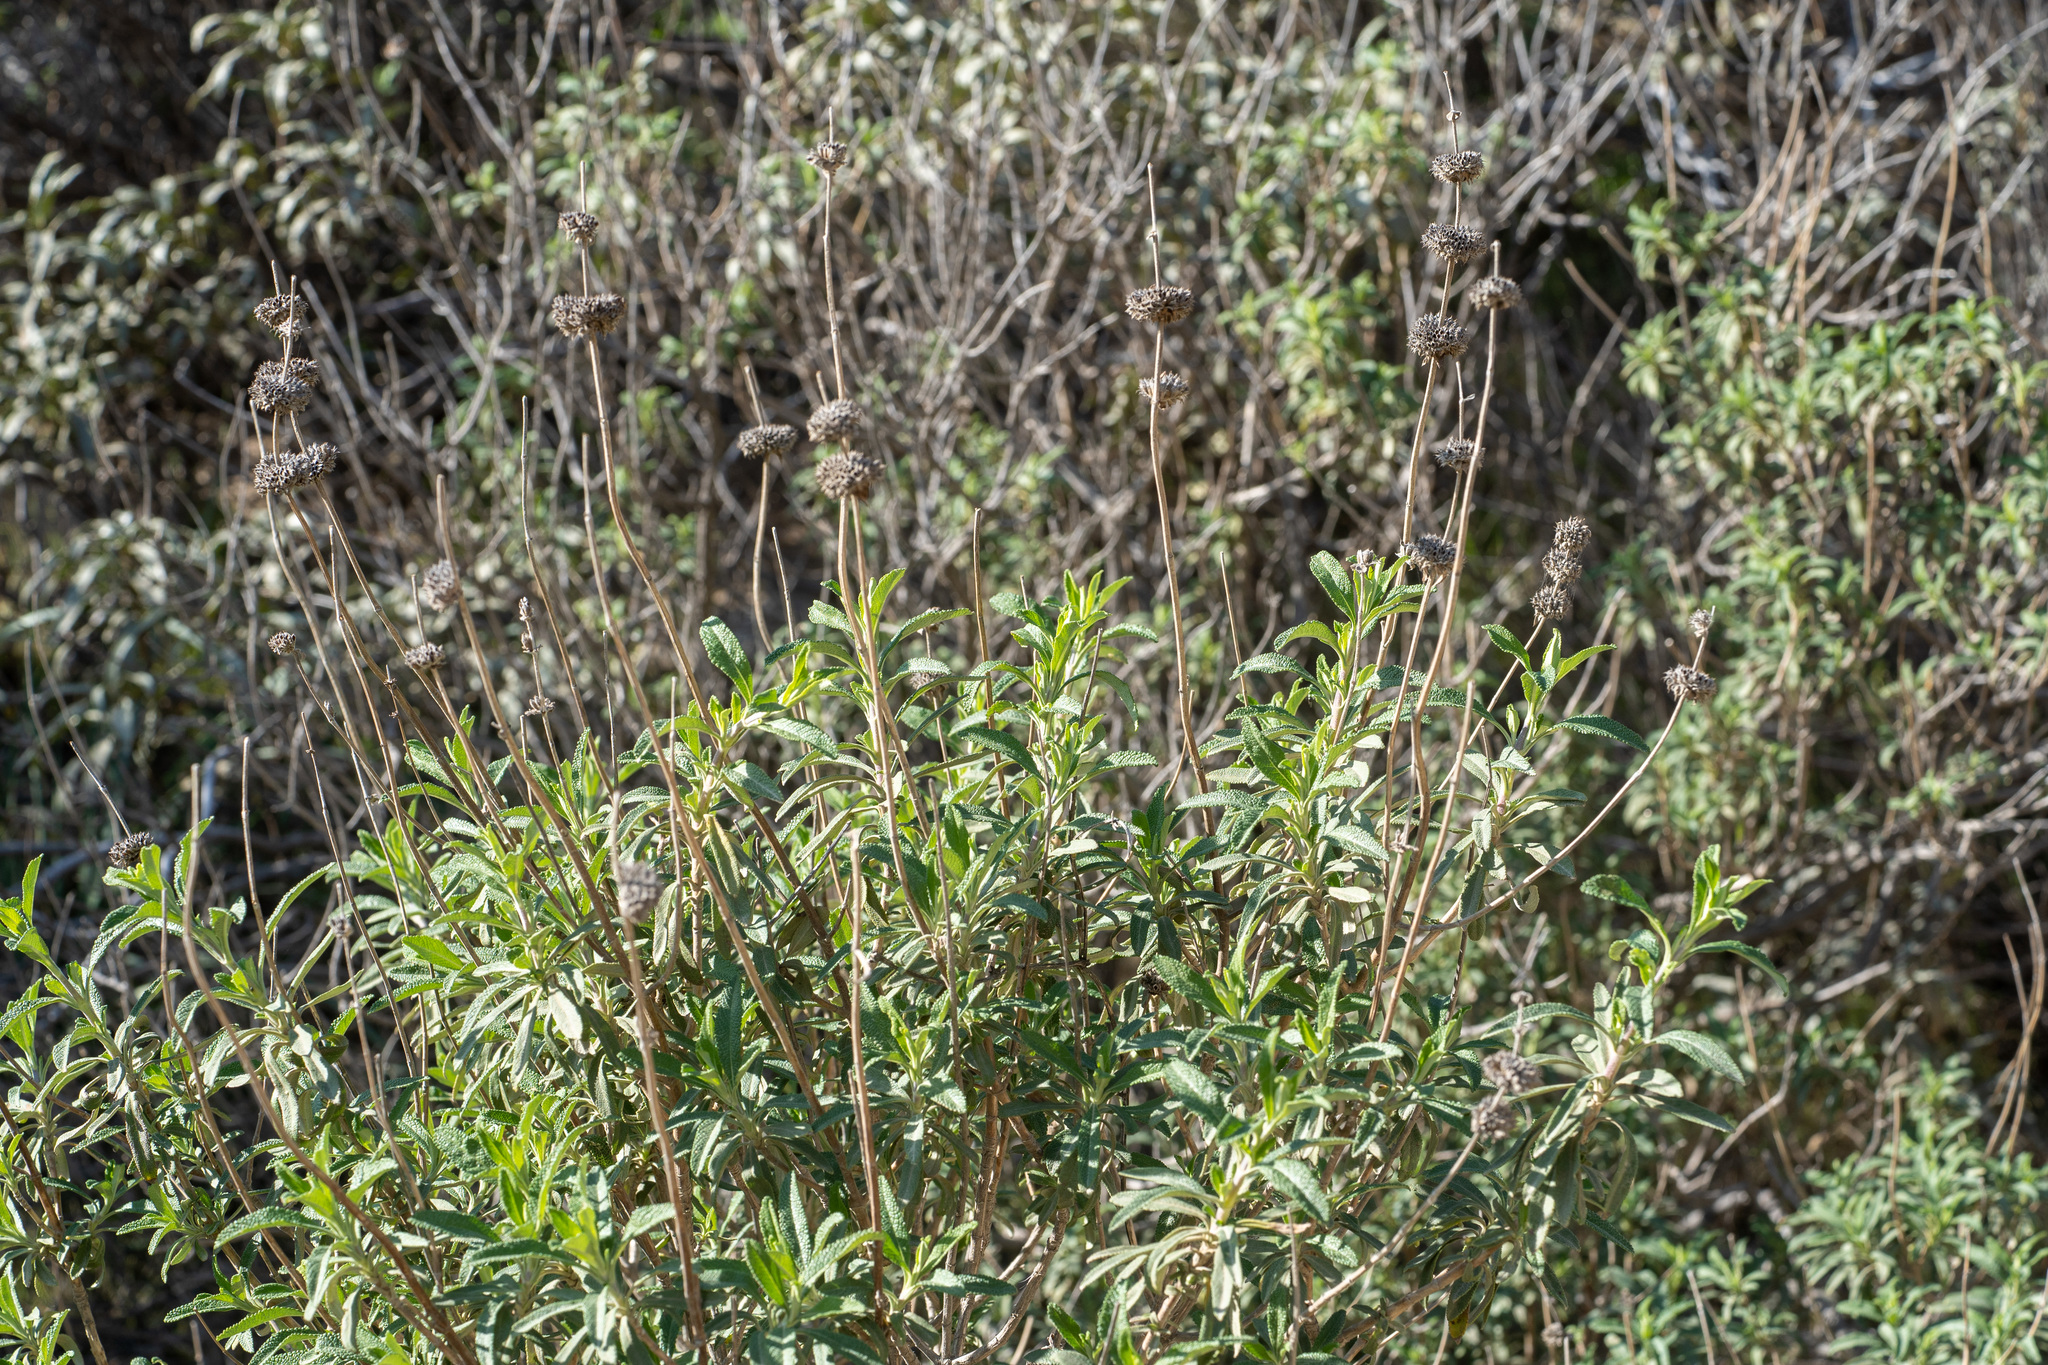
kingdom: Plantae
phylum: Tracheophyta
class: Magnoliopsida
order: Lamiales
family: Lamiaceae
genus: Salvia
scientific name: Salvia mellifera
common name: Black sage
